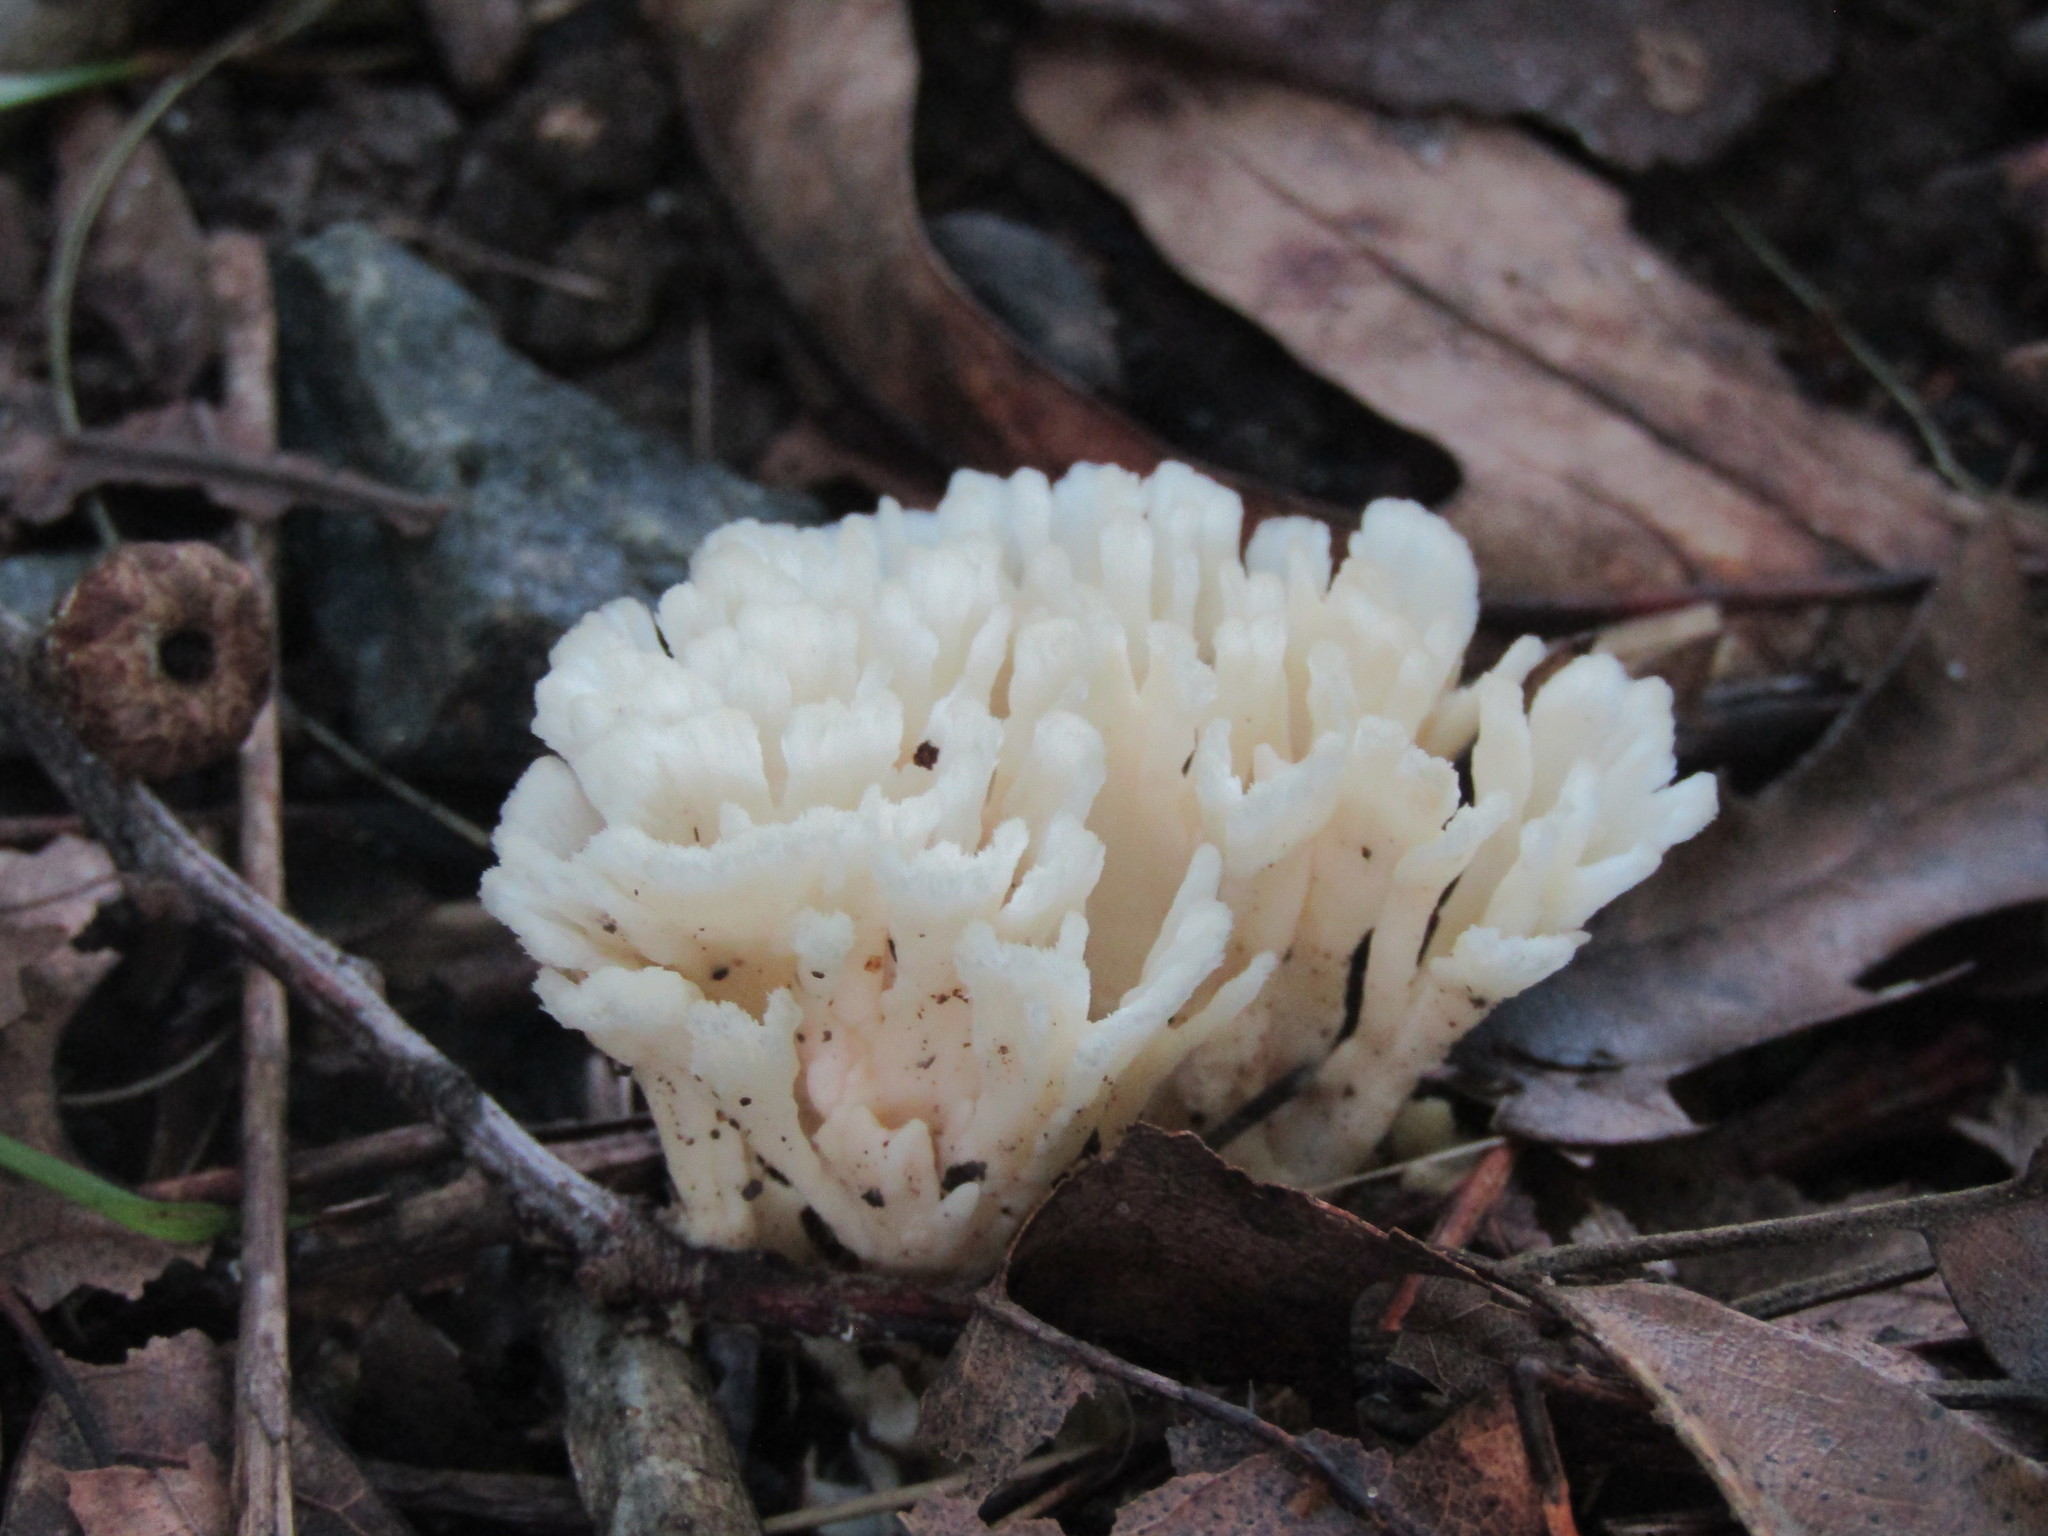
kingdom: Fungi
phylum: Basidiomycota
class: Agaricomycetes
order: Sebacinales
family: Sebacinaceae
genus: Sebacina
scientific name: Sebacina schweinitzii
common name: Jellied false coral fungus
